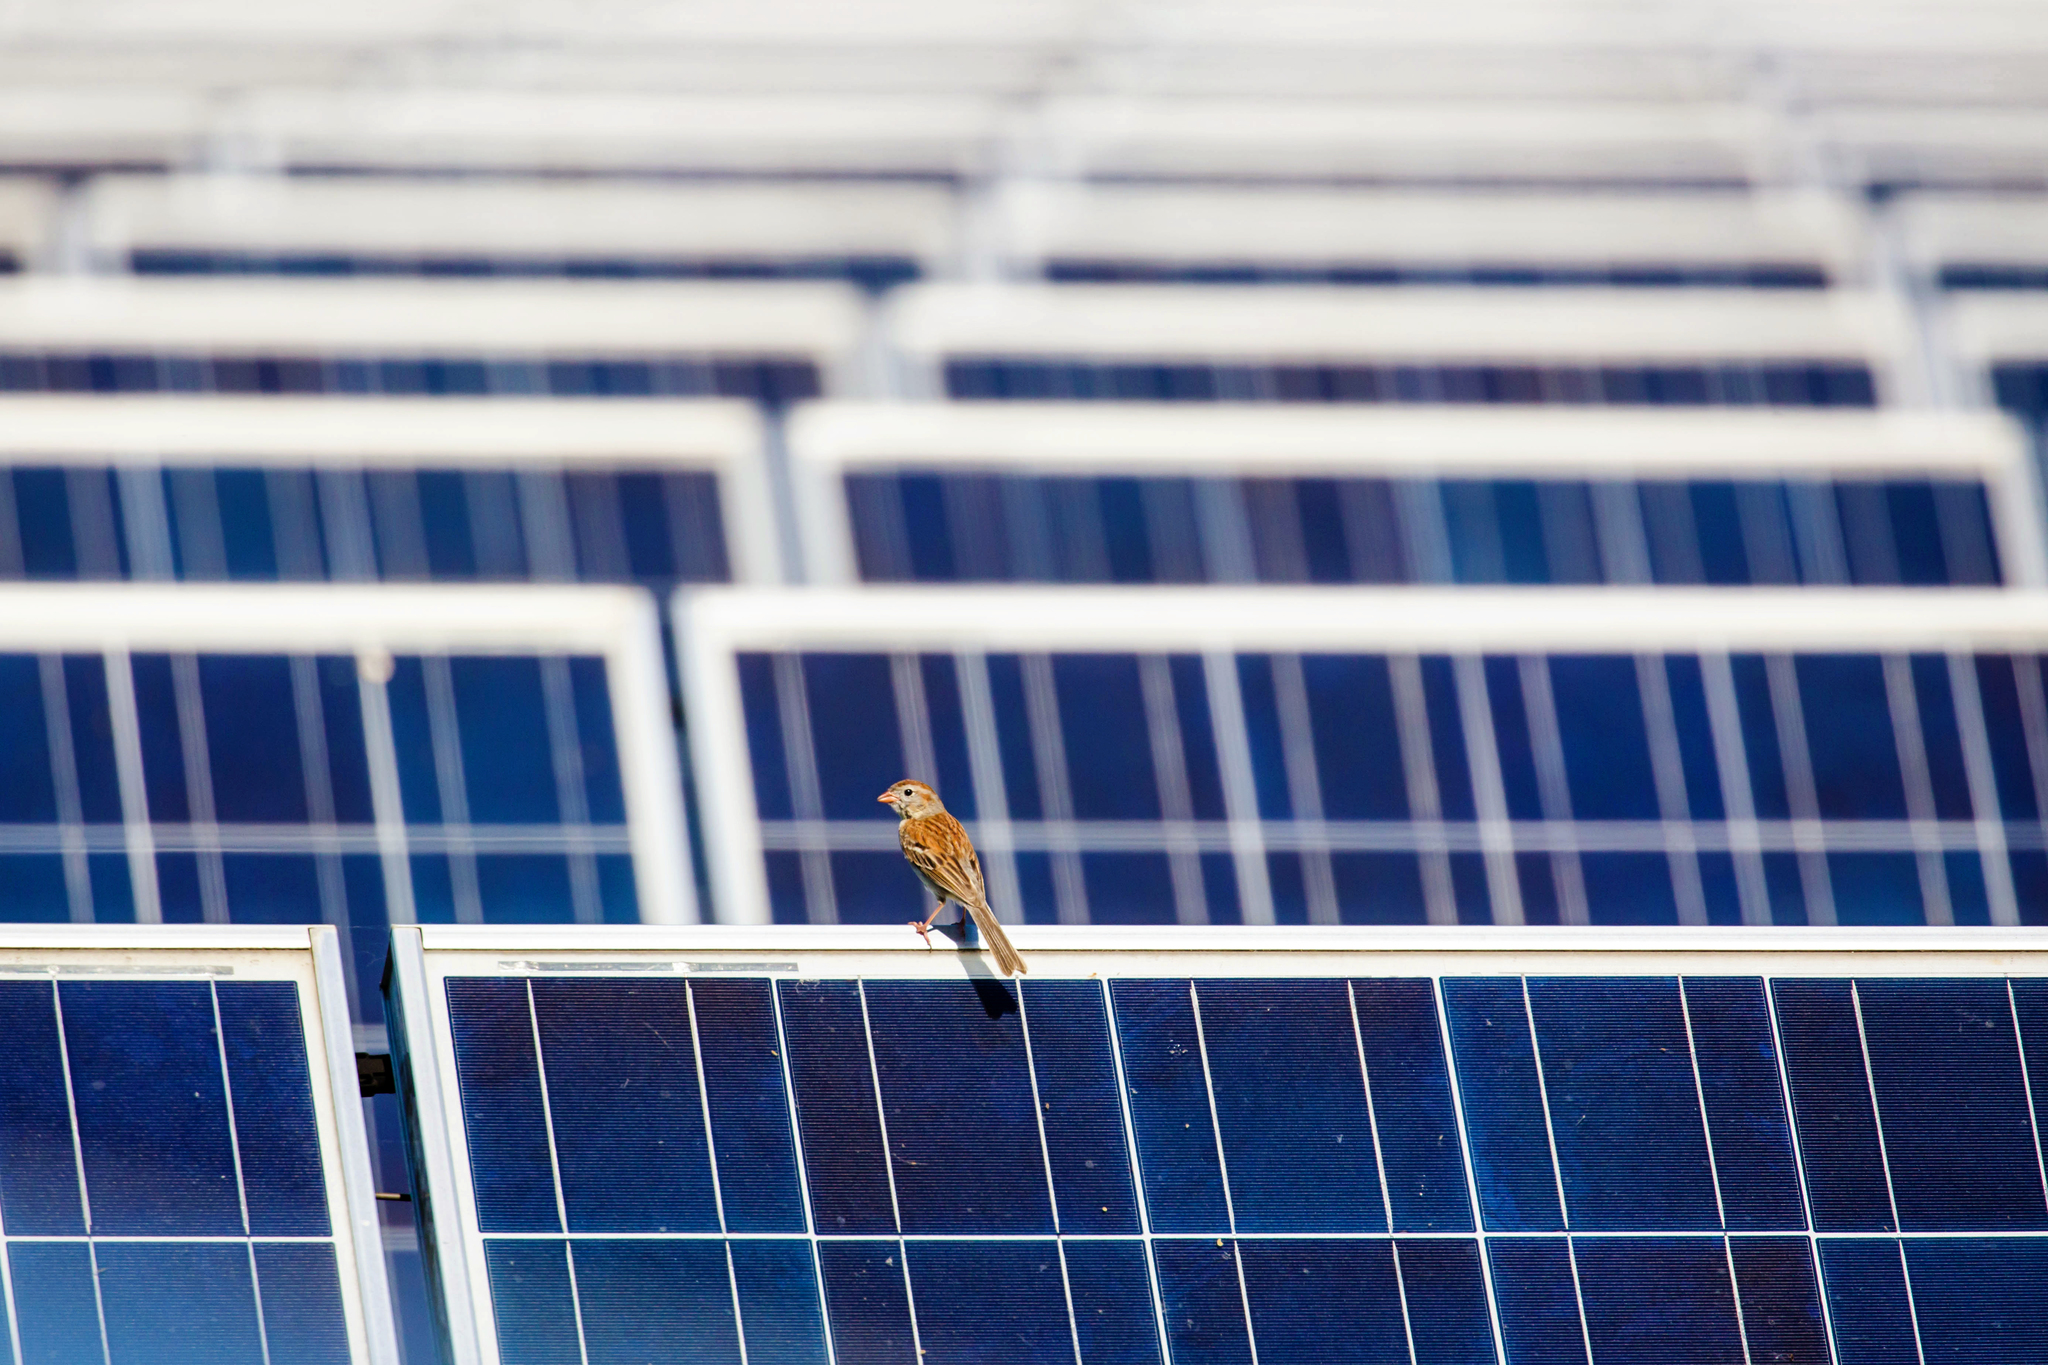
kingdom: Animalia
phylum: Chordata
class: Aves
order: Passeriformes
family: Passerellidae
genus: Spizella
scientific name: Spizella pusilla
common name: Field sparrow
